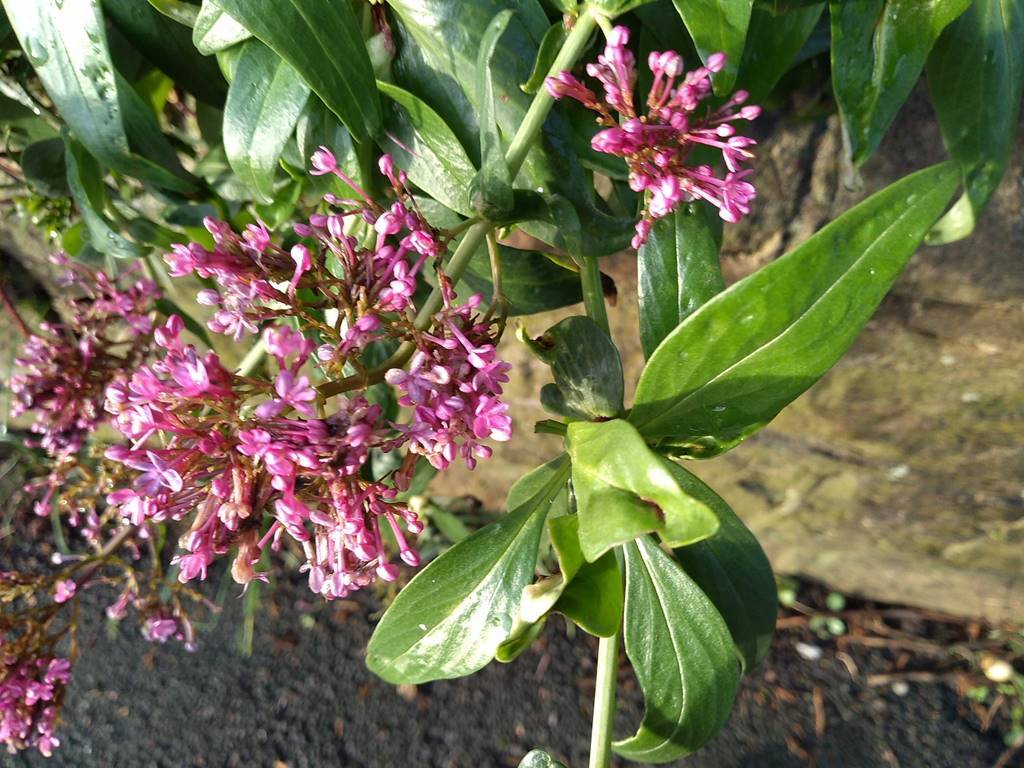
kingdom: Plantae
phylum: Tracheophyta
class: Magnoliopsida
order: Dipsacales
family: Caprifoliaceae
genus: Centranthus
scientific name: Centranthus ruber
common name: Red valerian
